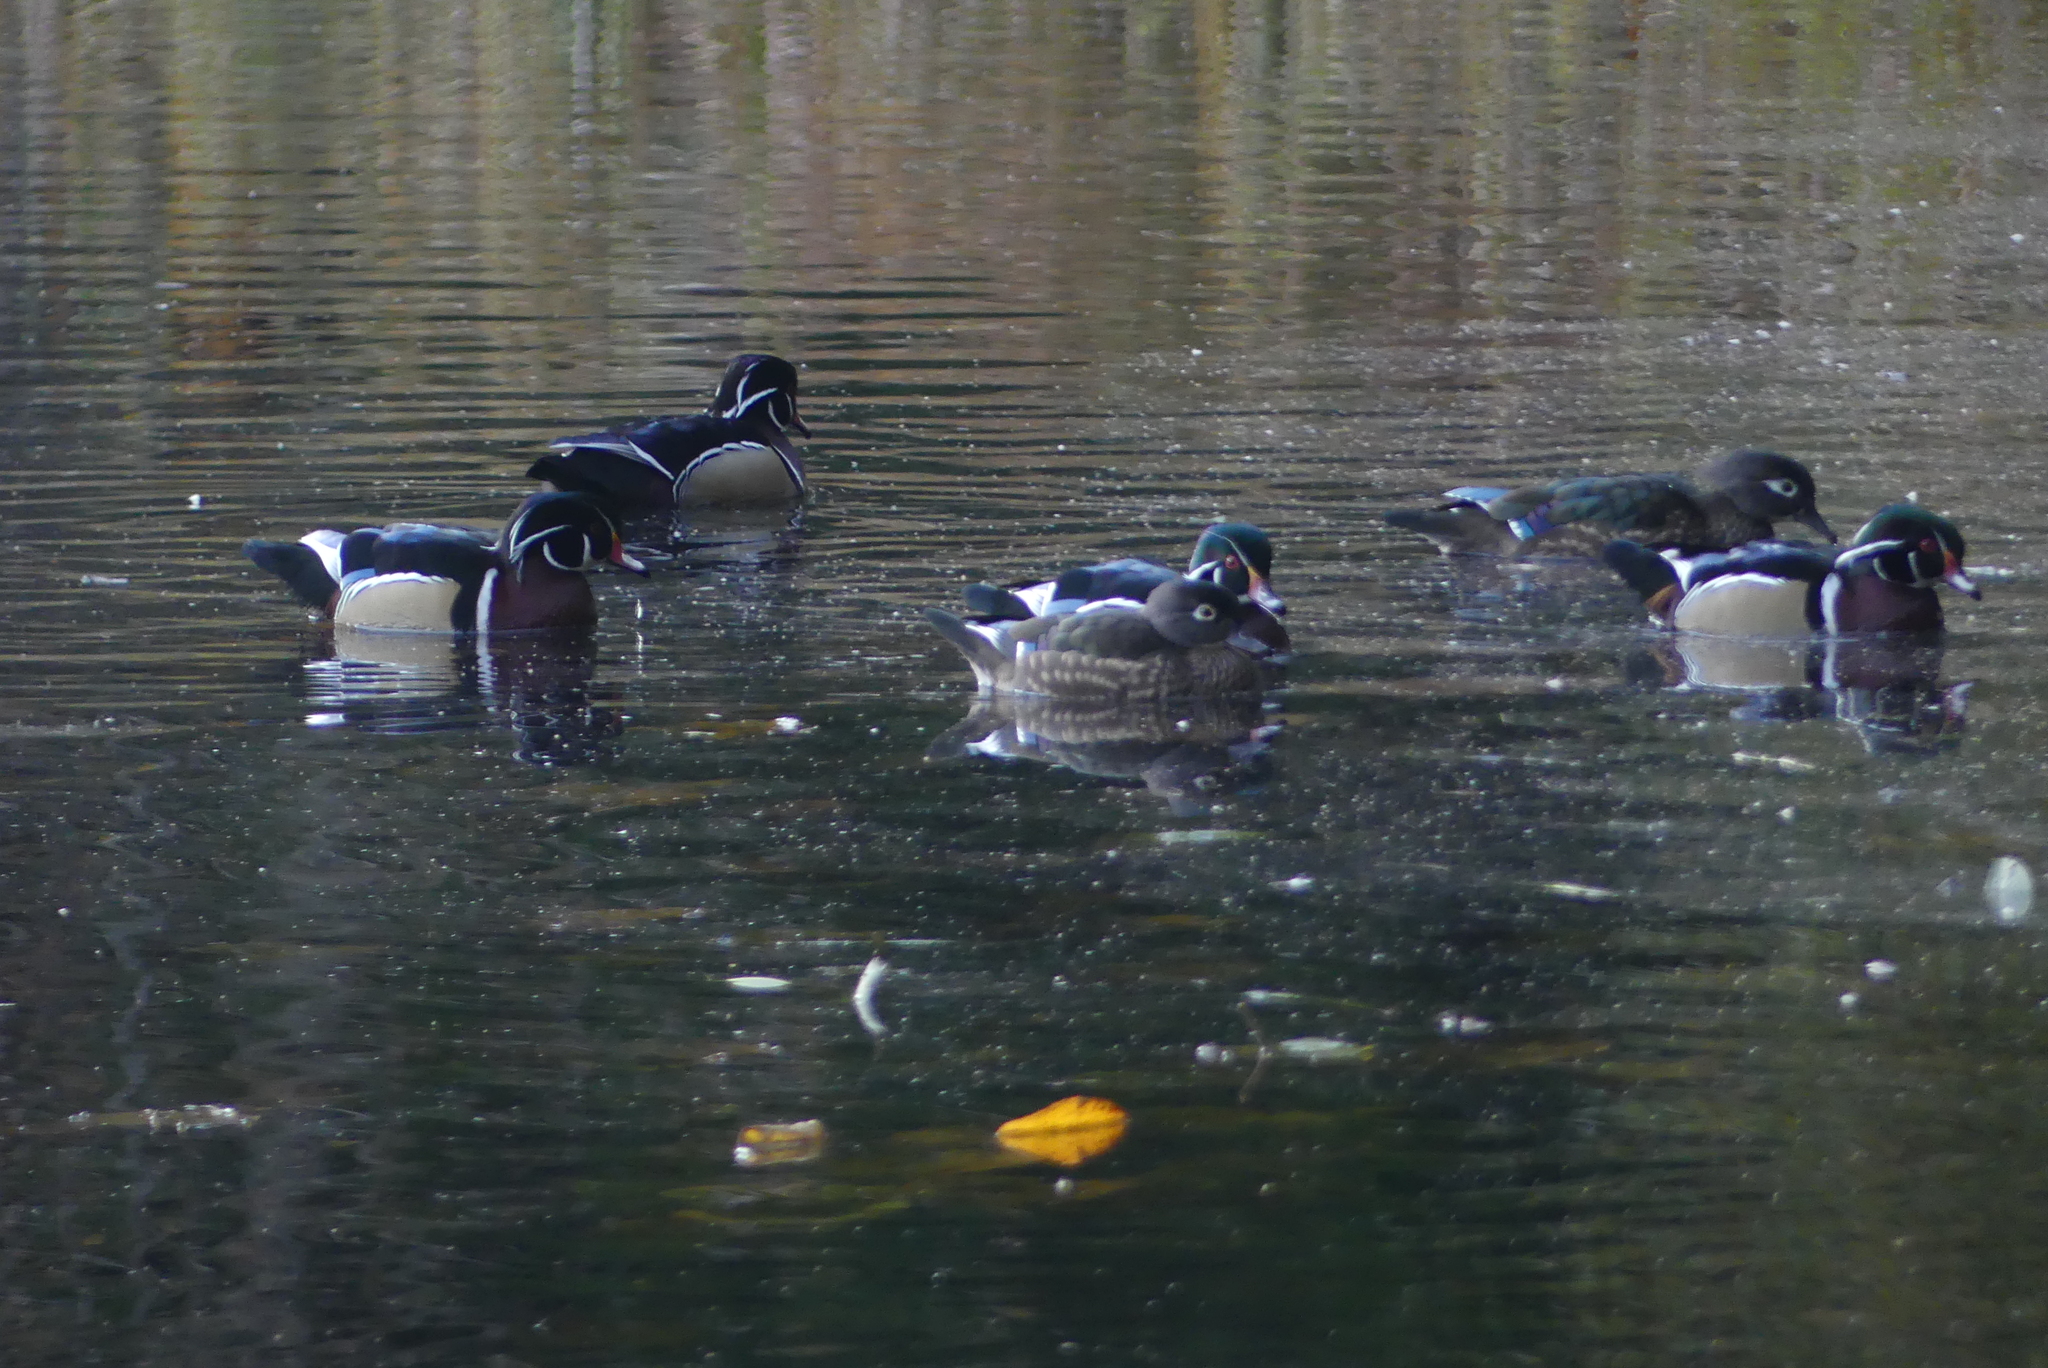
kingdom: Animalia
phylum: Chordata
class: Aves
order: Anseriformes
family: Anatidae
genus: Aix
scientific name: Aix sponsa
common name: Wood duck
